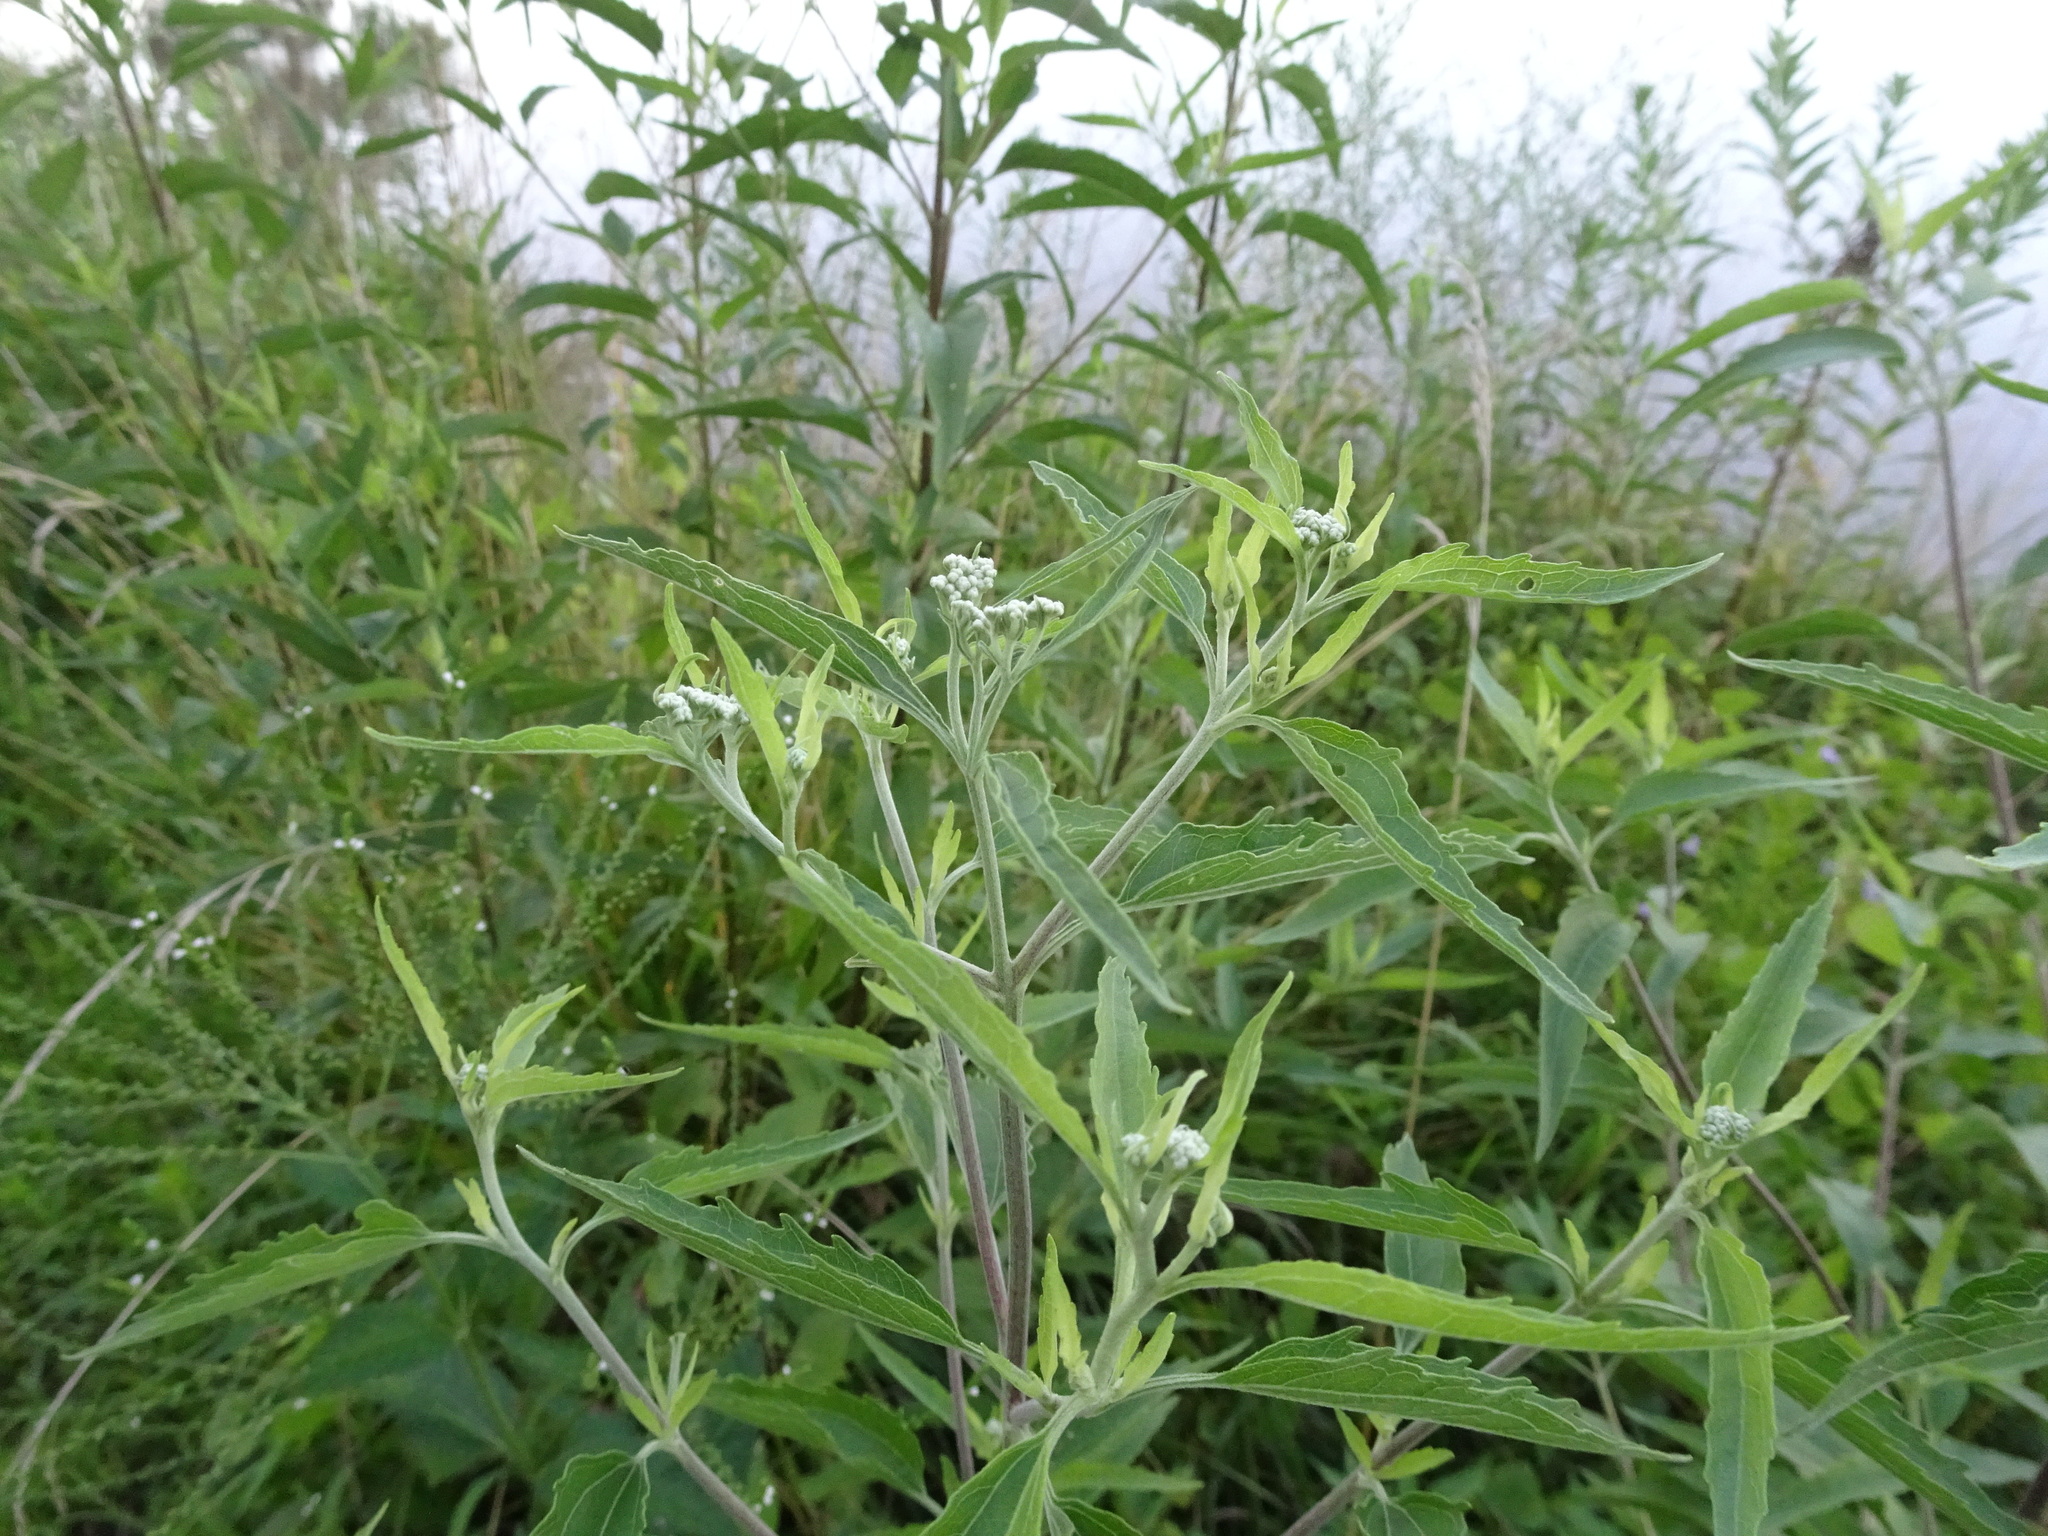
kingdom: Plantae
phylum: Tracheophyta
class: Magnoliopsida
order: Asterales
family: Asteraceae
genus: Eupatorium
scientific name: Eupatorium serotinum
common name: Late boneset
